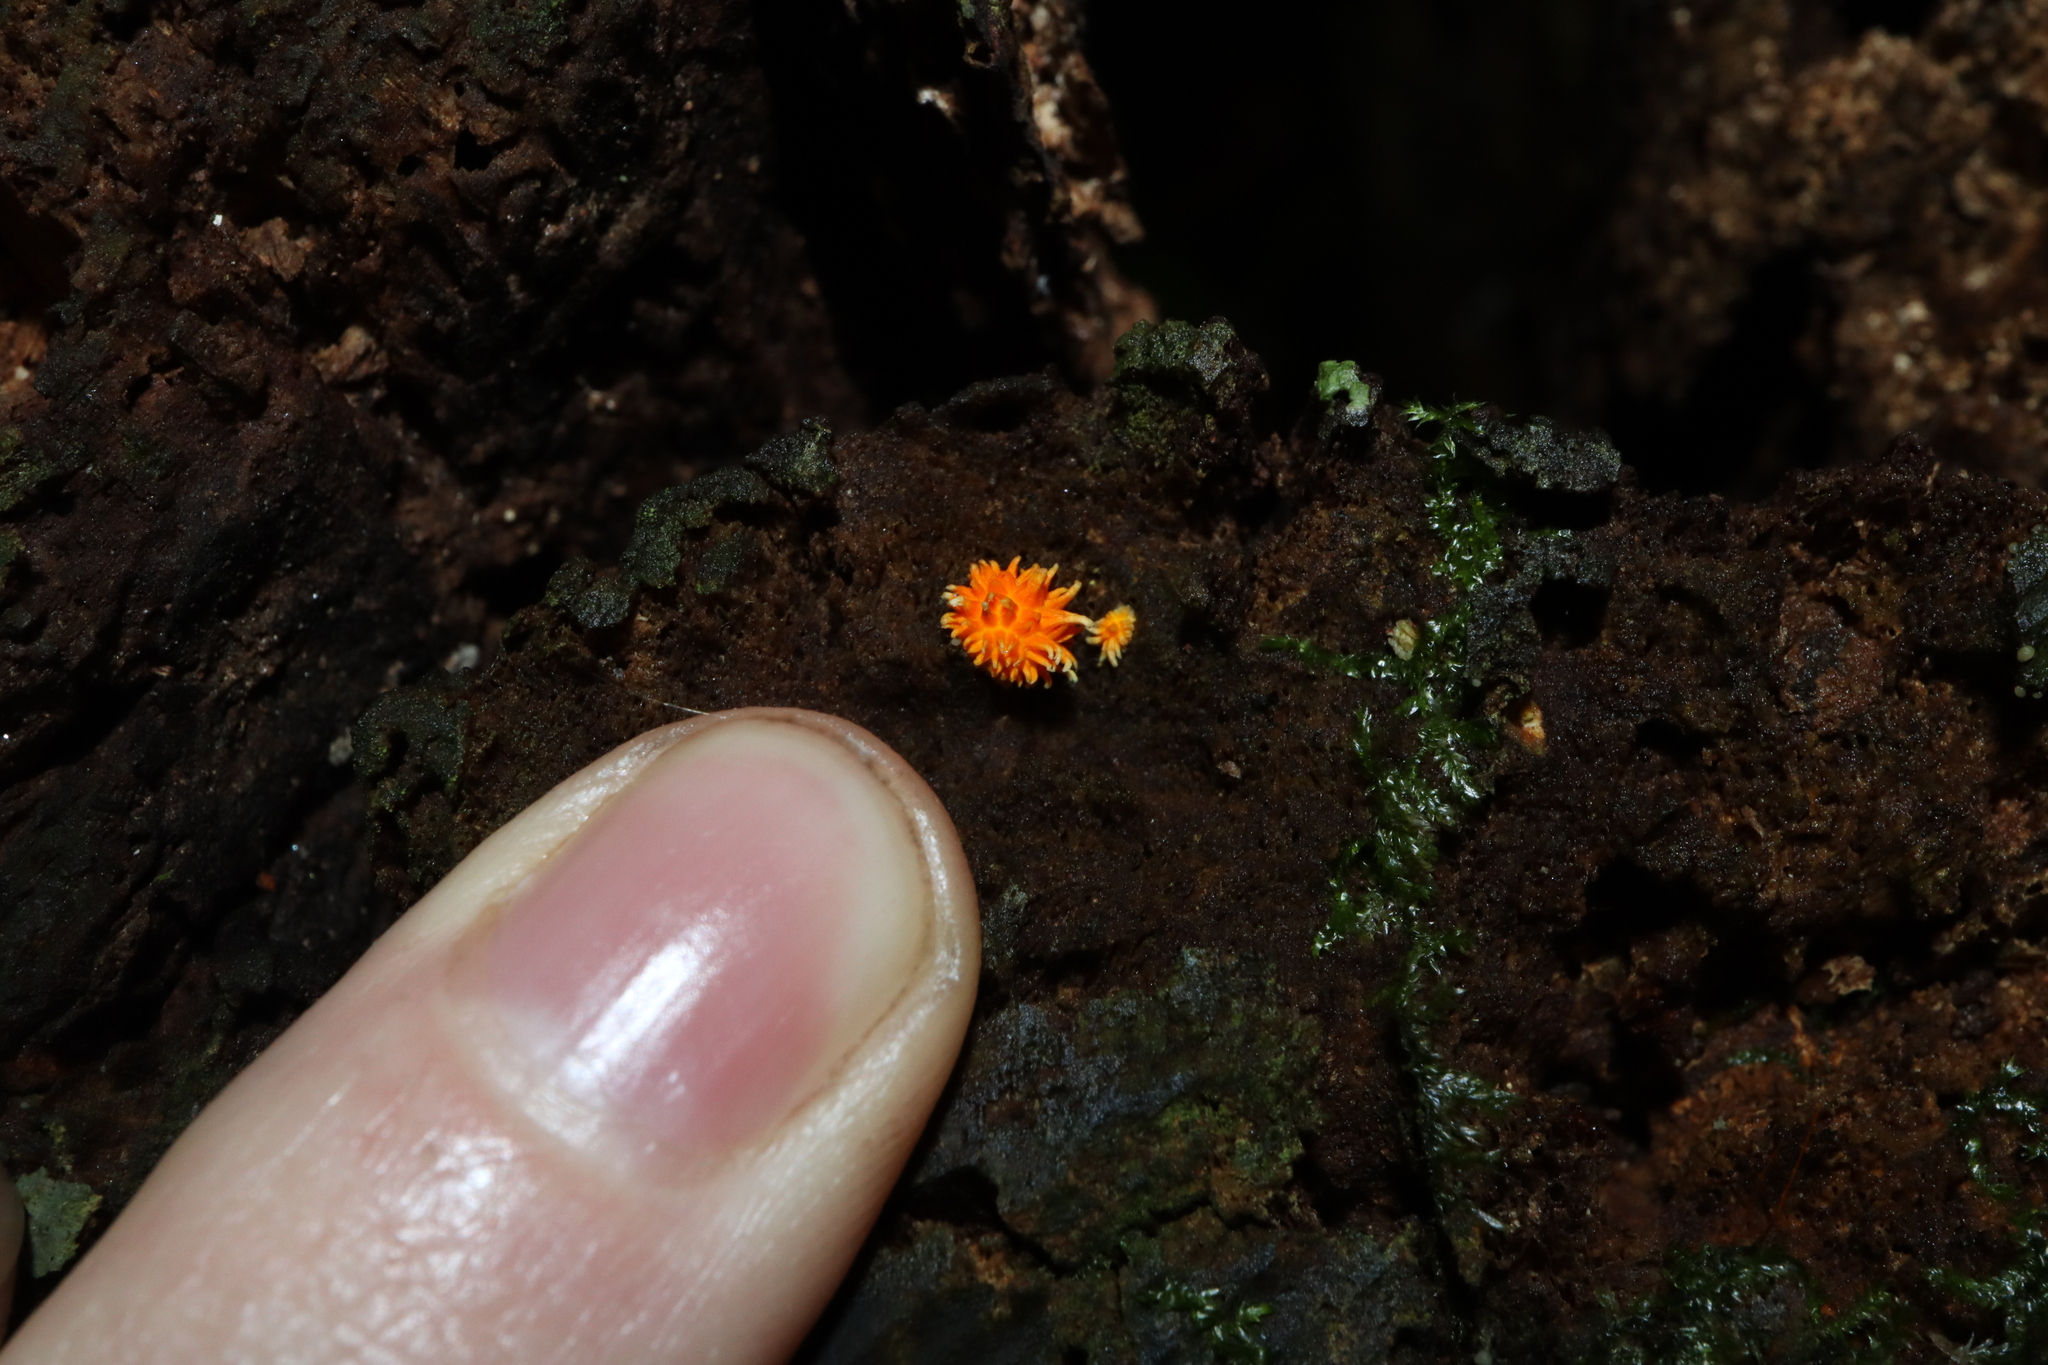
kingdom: Fungi
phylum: Basidiomycota
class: Agaricomycetes
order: Agaricales
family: Physalacriaceae
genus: Cyptotrama
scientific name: Cyptotrama asprata
